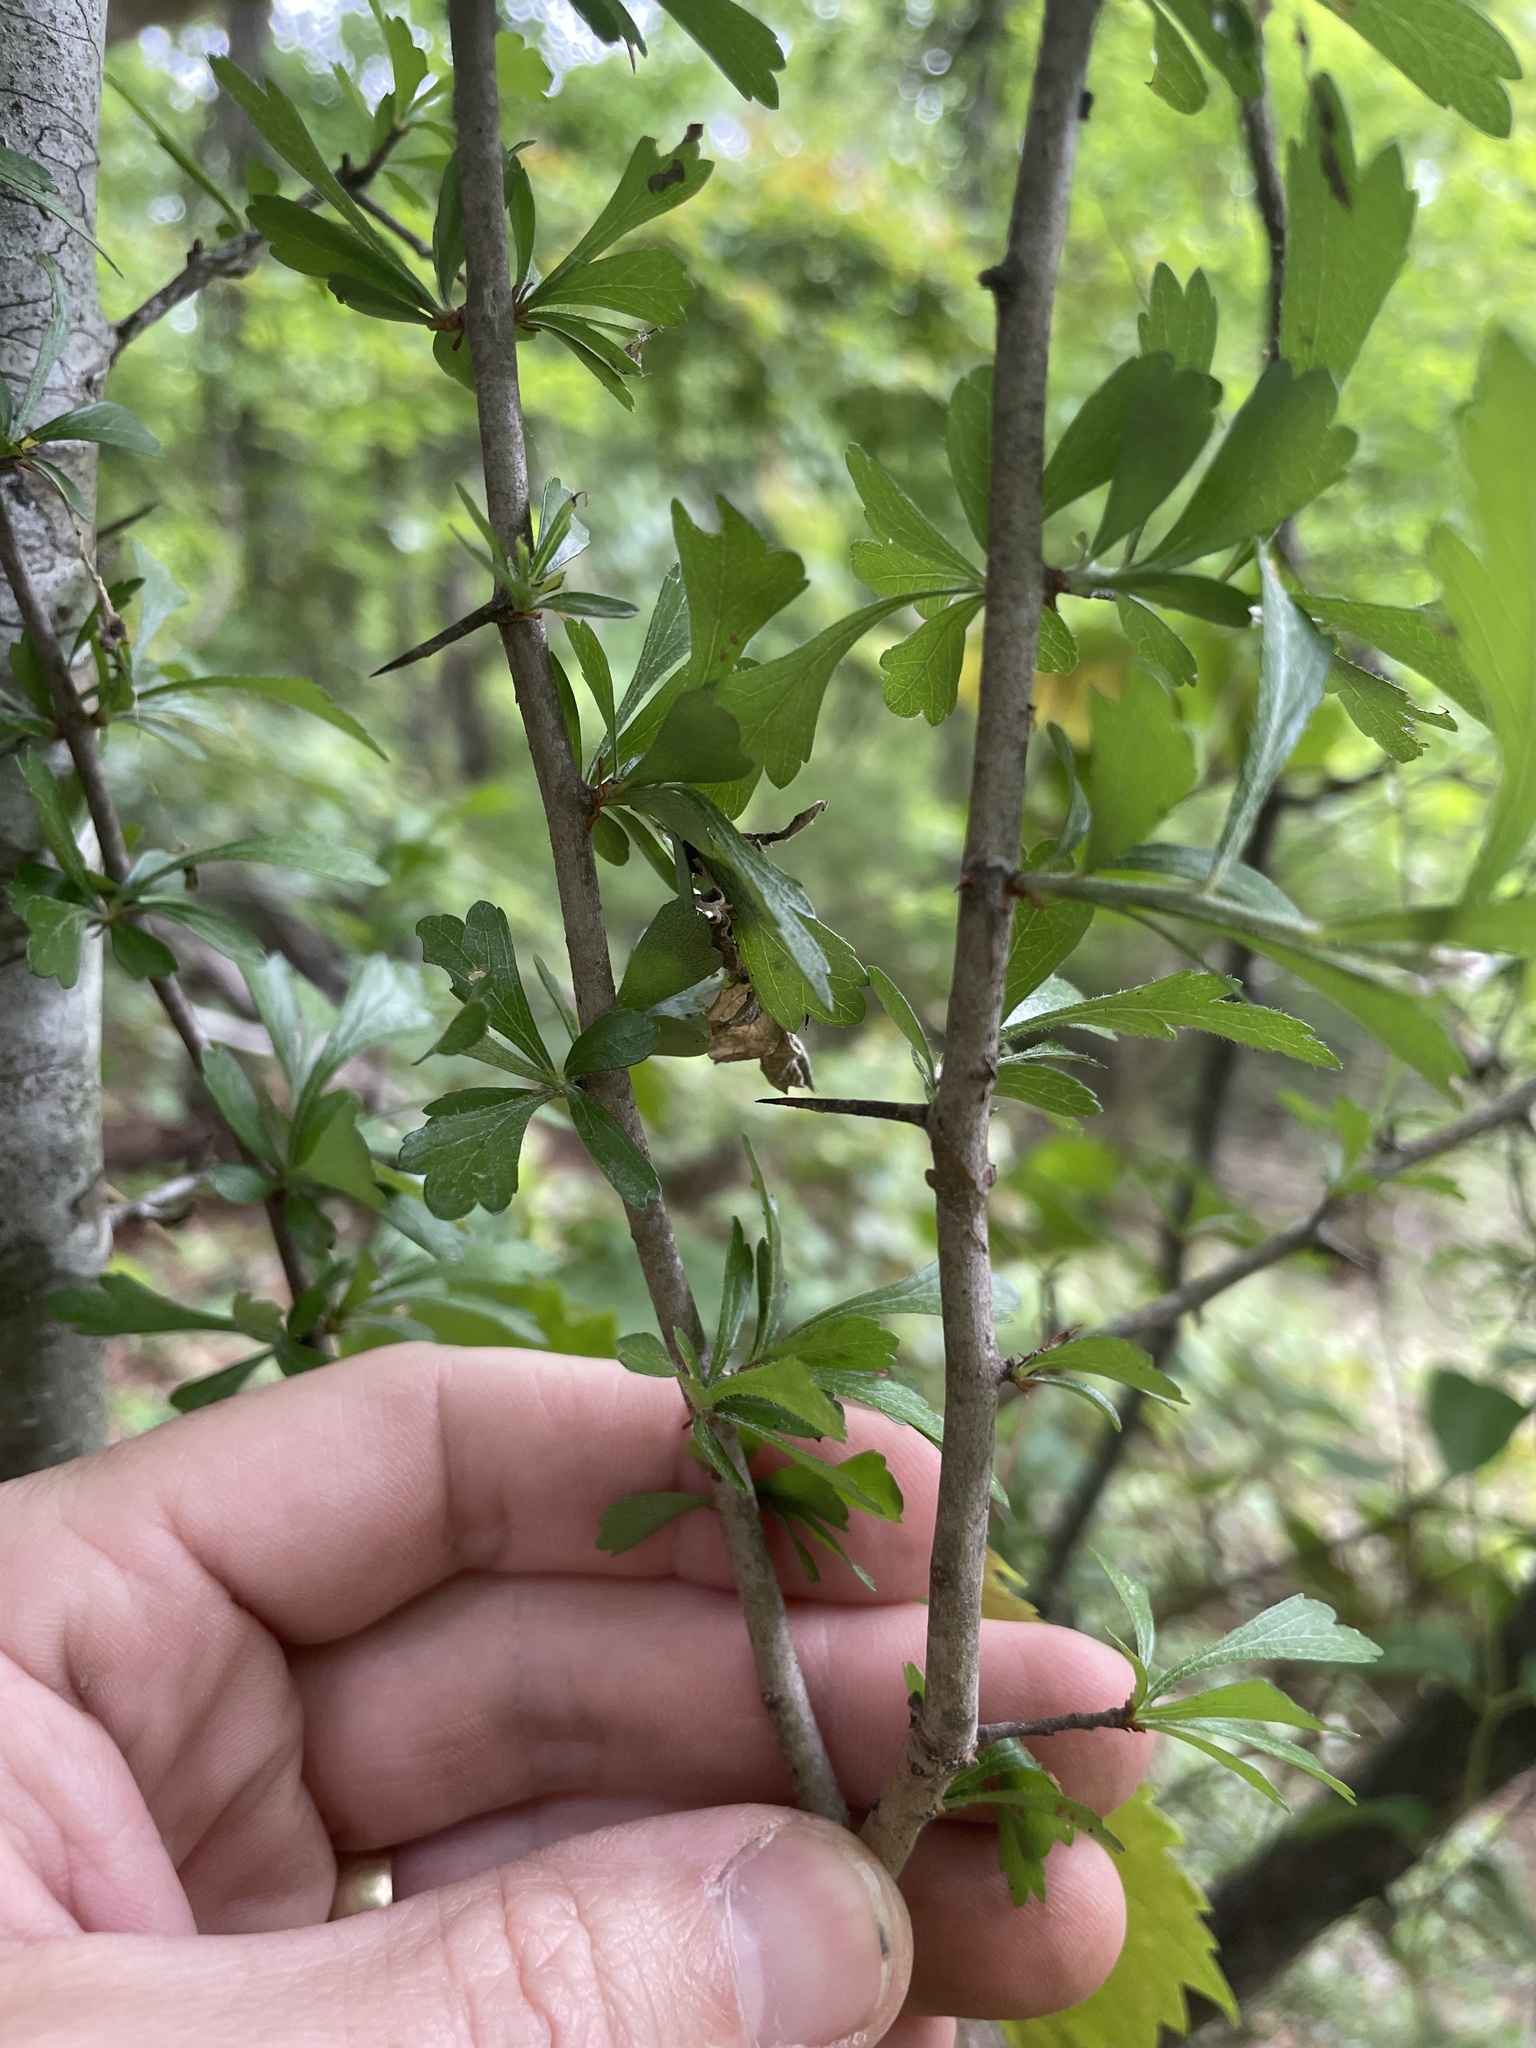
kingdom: Plantae
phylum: Tracheophyta
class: Magnoliopsida
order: Rosales
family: Rosaceae
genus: Crataegus
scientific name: Crataegus spathulata
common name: Littlehip hawthorn
